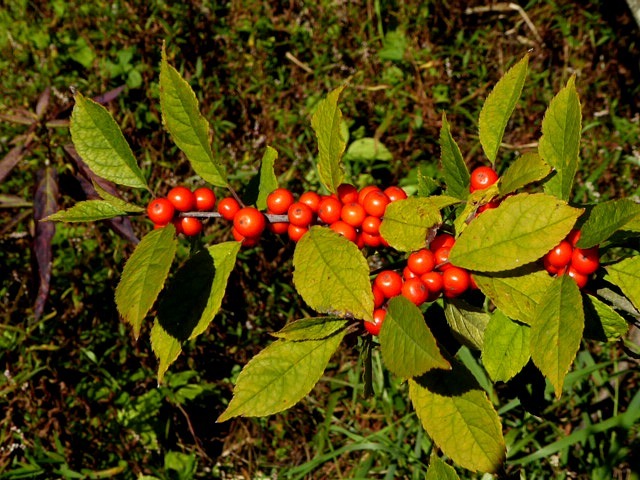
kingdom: Plantae
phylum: Tracheophyta
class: Magnoliopsida
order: Aquifoliales
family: Aquifoliaceae
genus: Ilex
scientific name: Ilex verticillata
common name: Virginia winterberry
